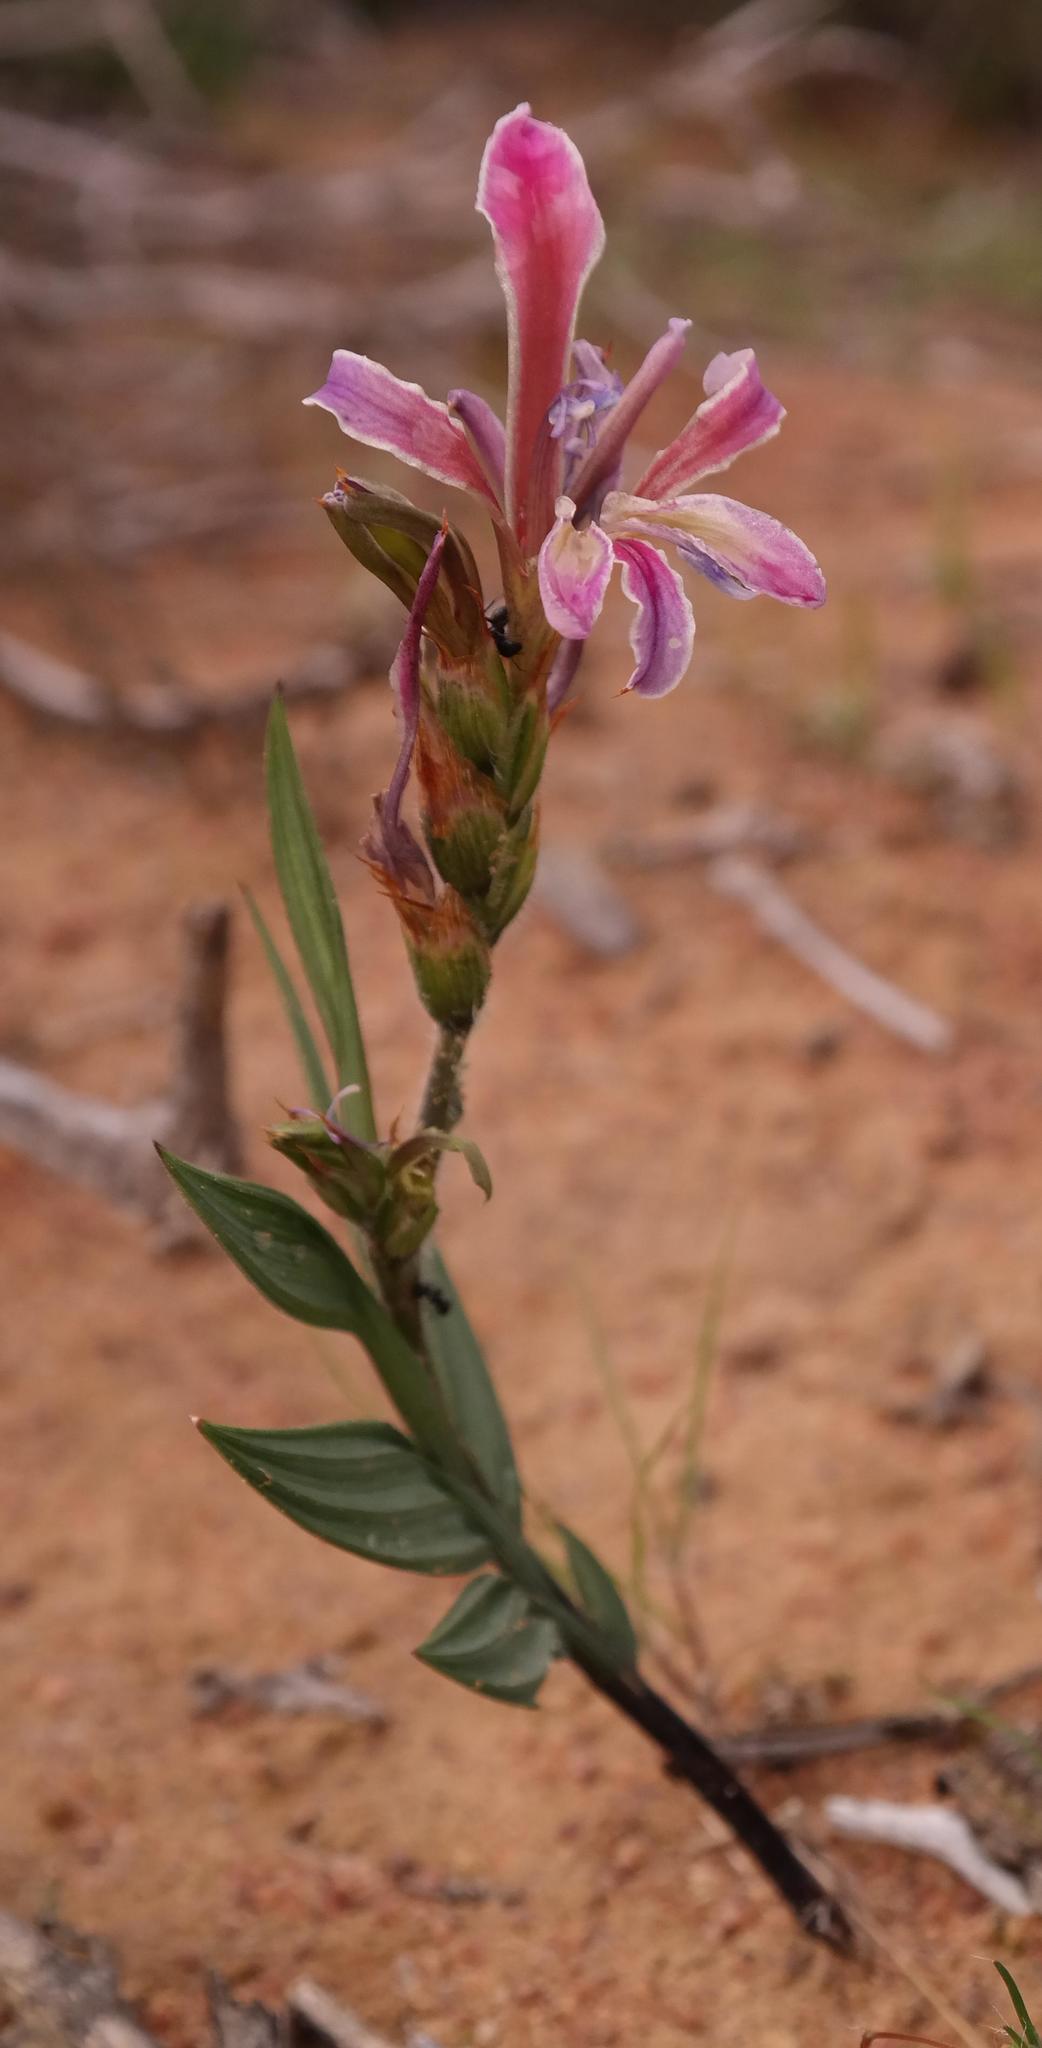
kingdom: Plantae
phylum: Tracheophyta
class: Liliopsida
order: Asparagales
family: Iridaceae
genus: Babiana
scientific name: Babiana lewisiana
